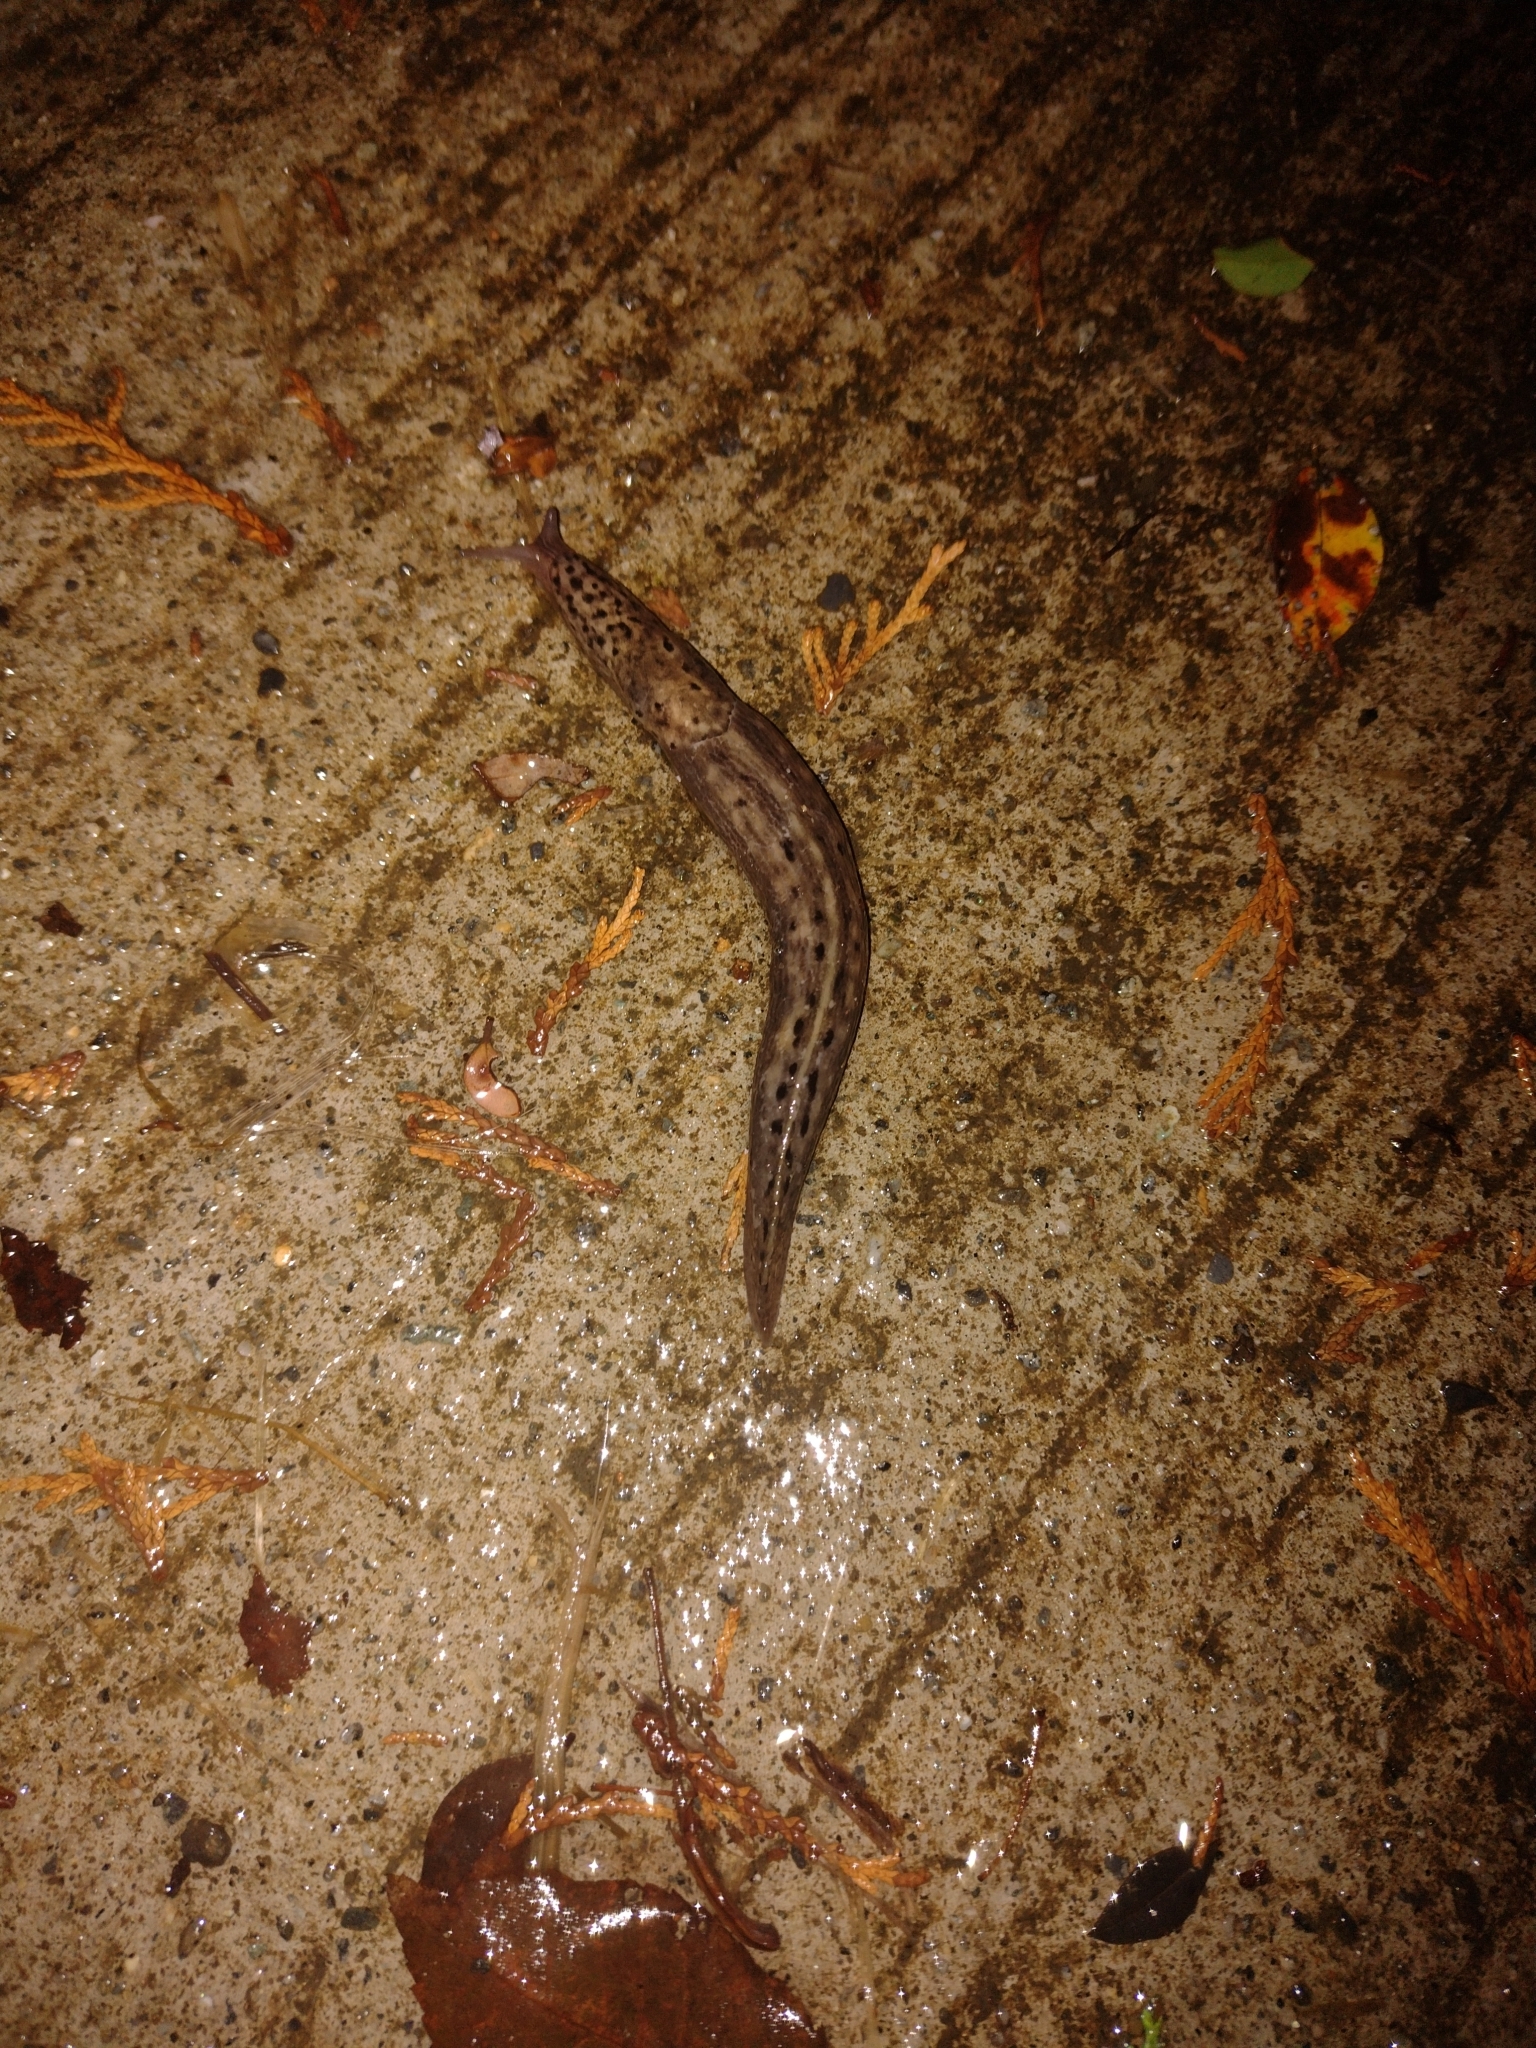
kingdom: Animalia
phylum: Mollusca
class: Gastropoda
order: Stylommatophora
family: Limacidae
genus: Limax
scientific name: Limax maximus
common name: Great grey slug
